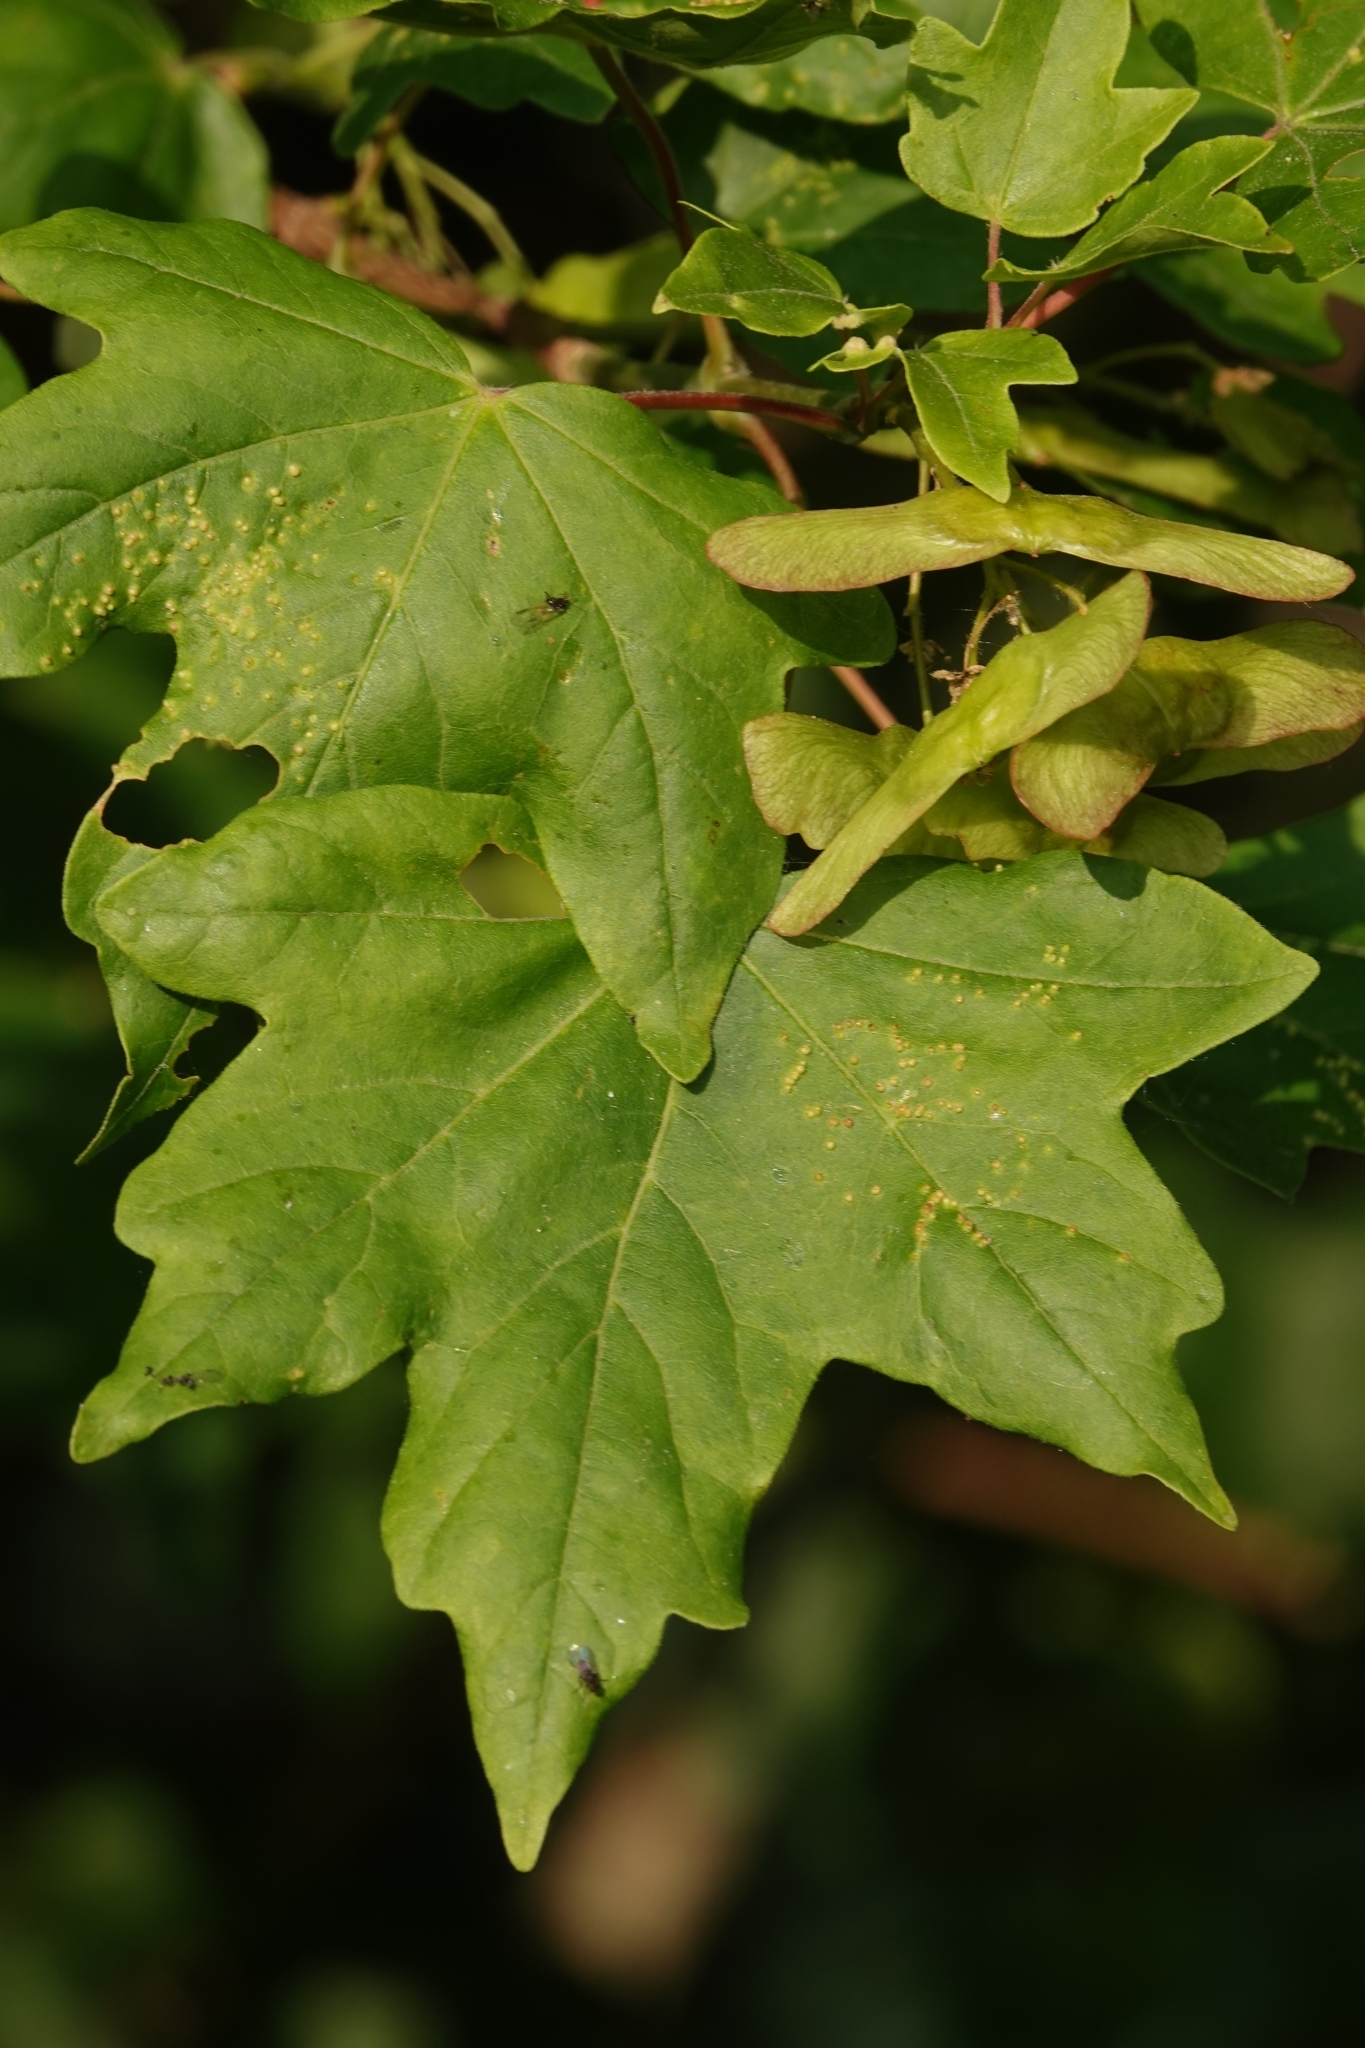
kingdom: Plantae
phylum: Tracheophyta
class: Magnoliopsida
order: Sapindales
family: Sapindaceae
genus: Acer
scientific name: Acer campestre
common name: Field maple
